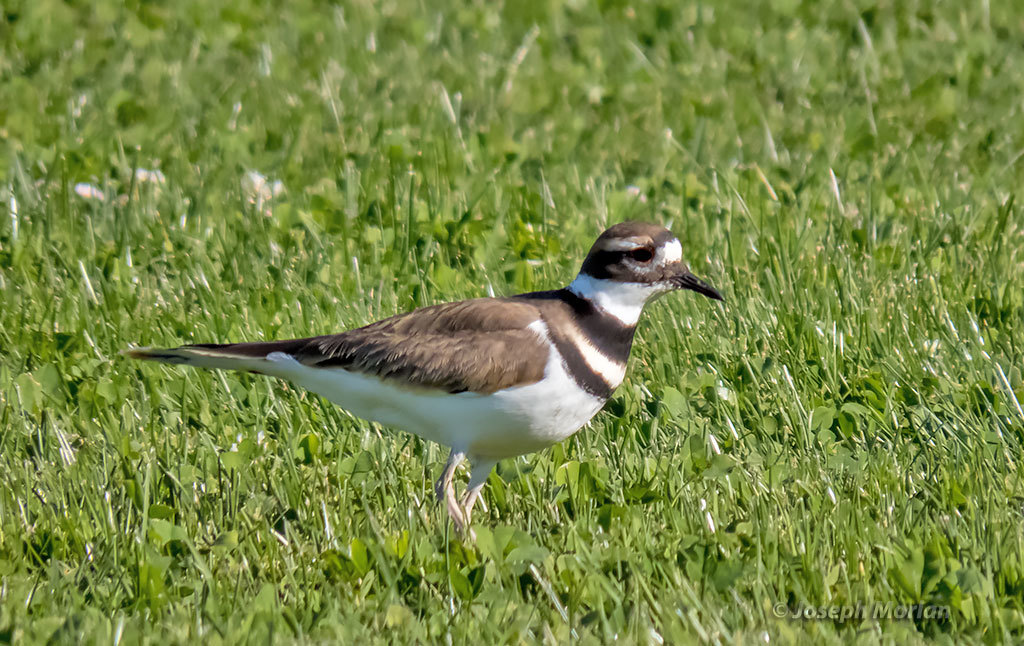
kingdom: Animalia
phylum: Chordata
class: Aves
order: Charadriiformes
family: Charadriidae
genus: Charadrius
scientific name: Charadrius vociferus
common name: Killdeer
